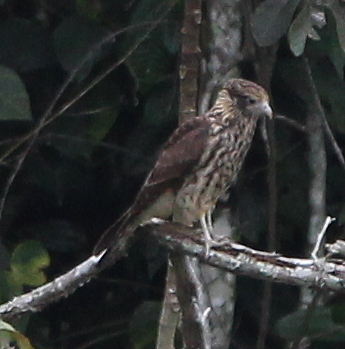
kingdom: Animalia
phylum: Chordata
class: Aves
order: Falconiformes
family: Falconidae
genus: Daptrius
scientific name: Daptrius
